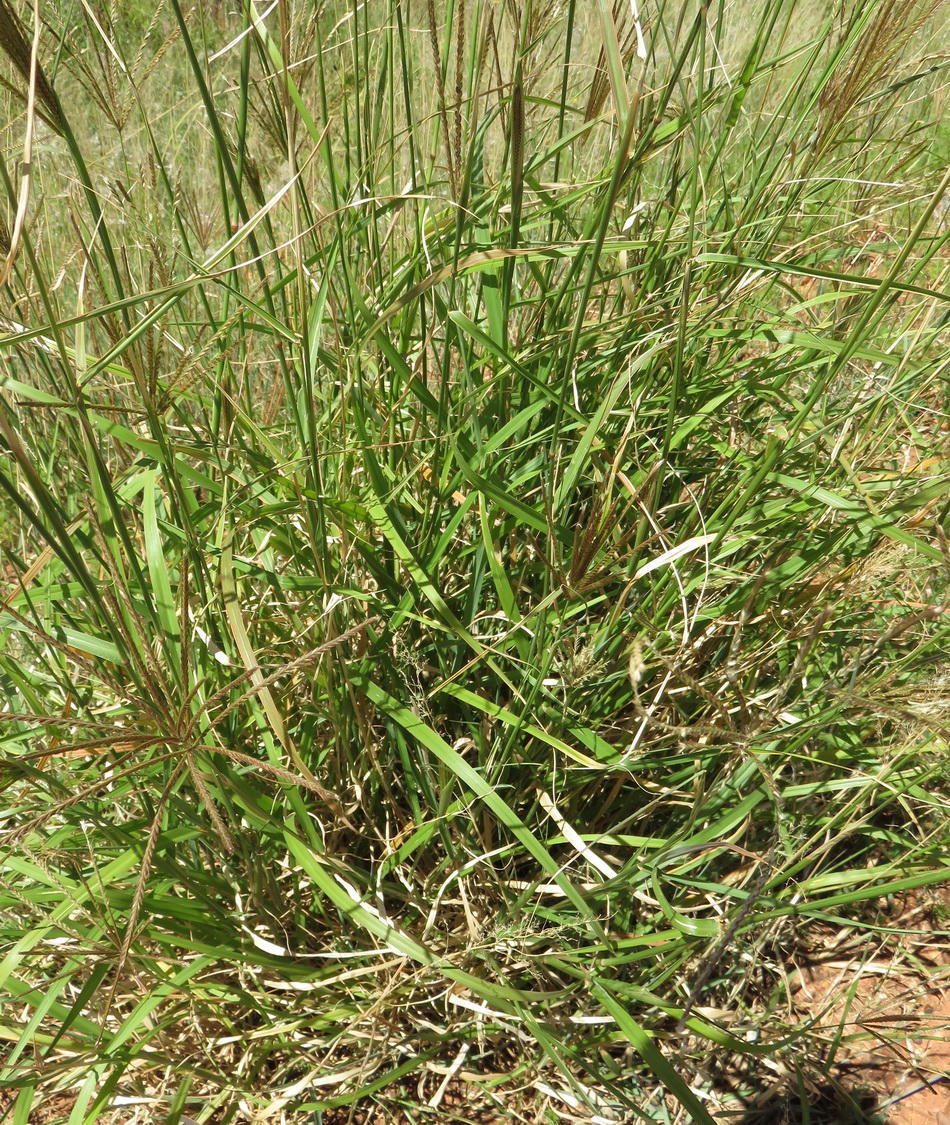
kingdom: Plantae
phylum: Tracheophyta
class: Liliopsida
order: Poales
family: Poaceae
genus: Chloris
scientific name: Chloris gayana
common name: Rhodes grass
